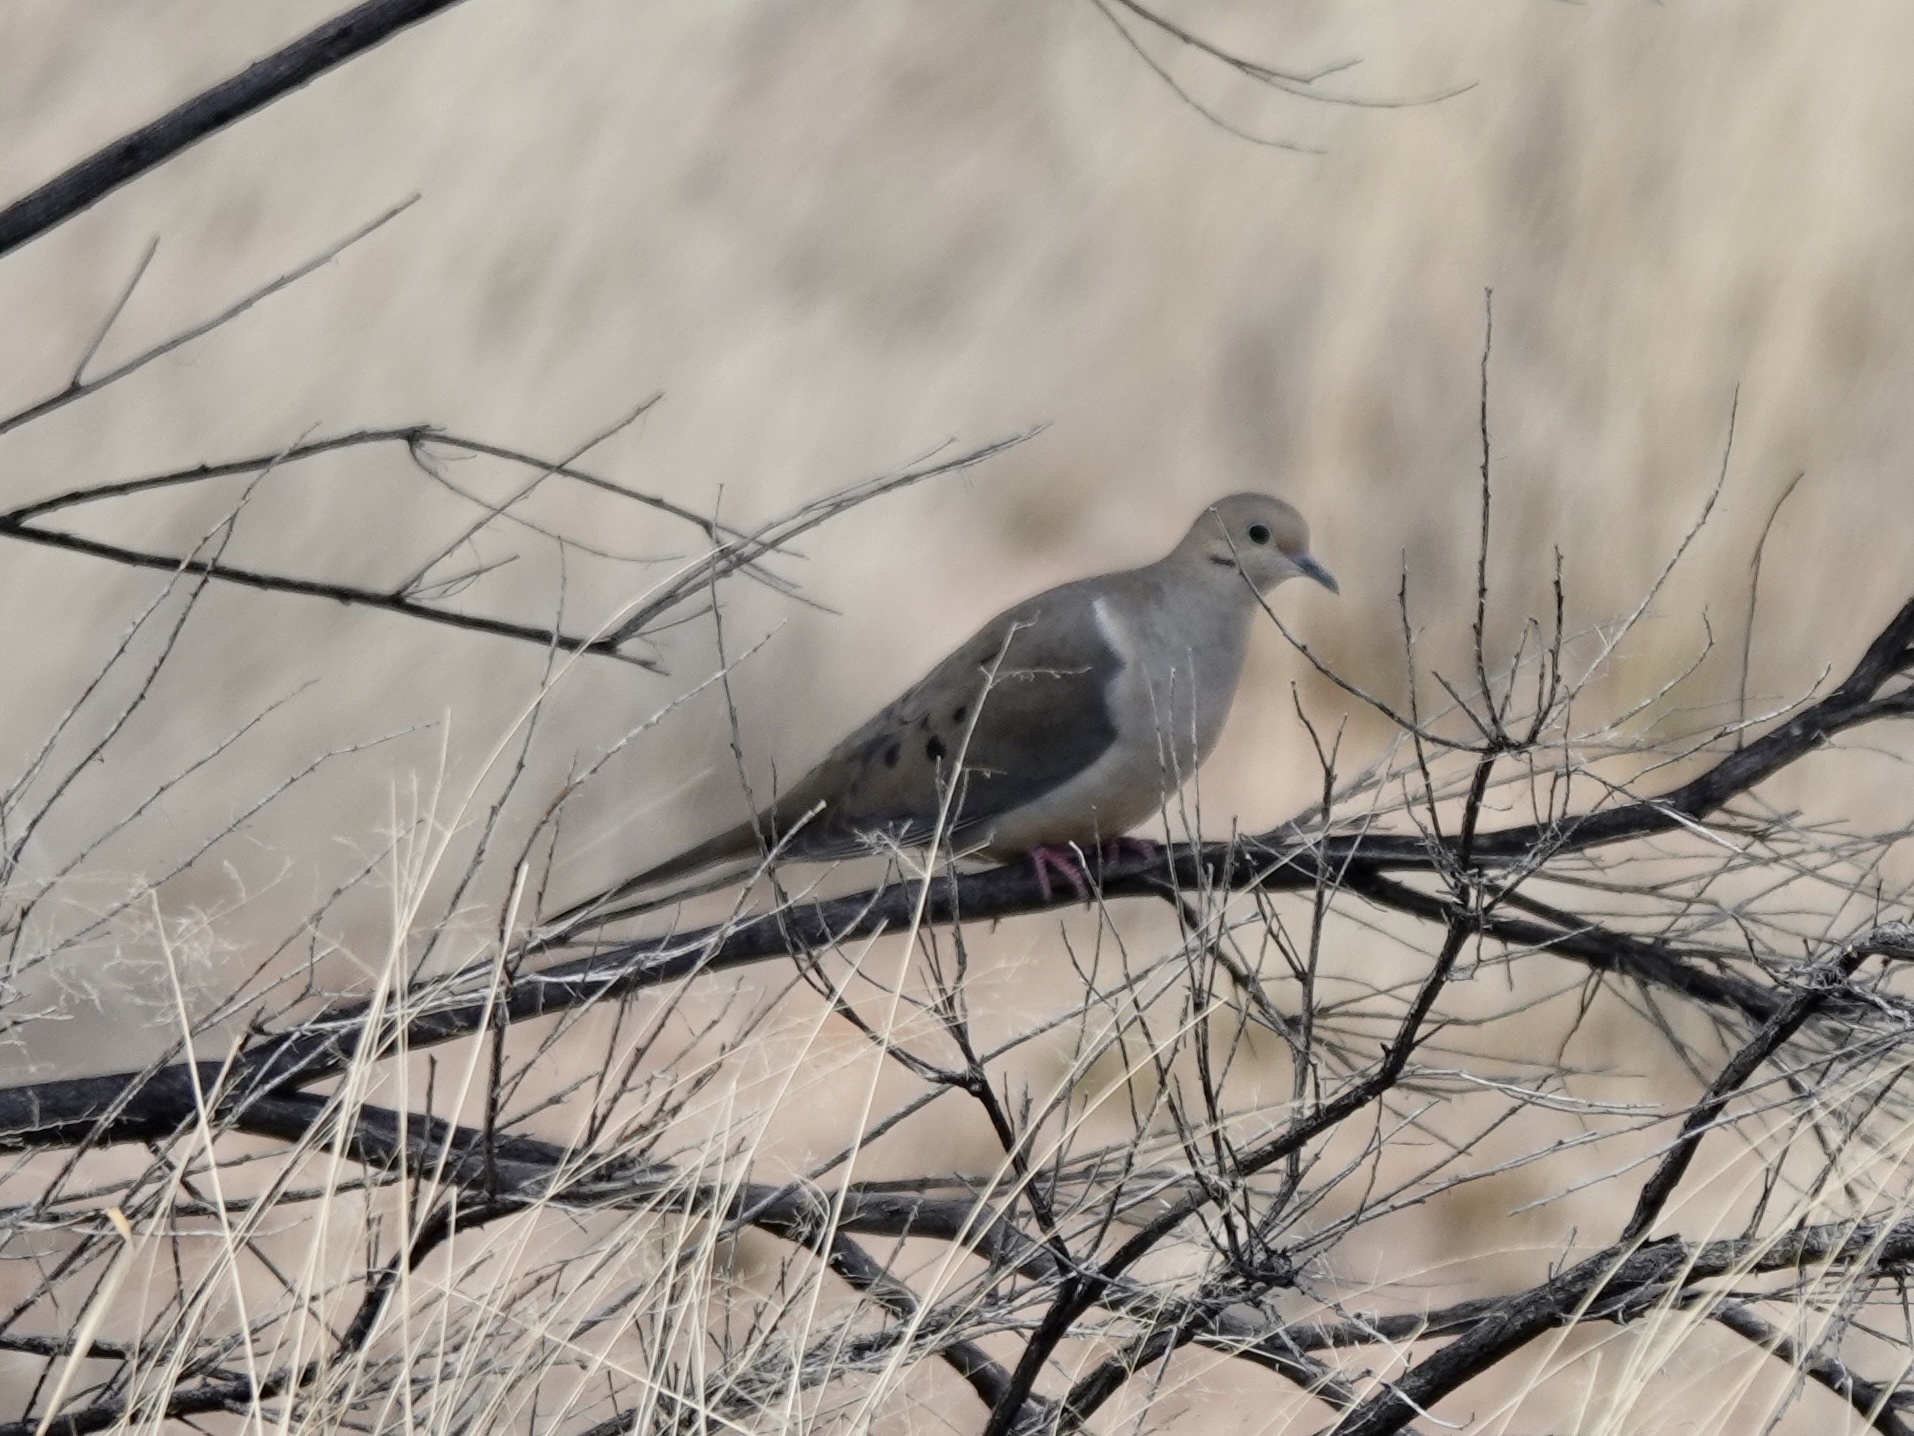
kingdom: Animalia
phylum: Chordata
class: Aves
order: Columbiformes
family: Columbidae
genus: Zenaida
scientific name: Zenaida macroura
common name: Mourning dove
